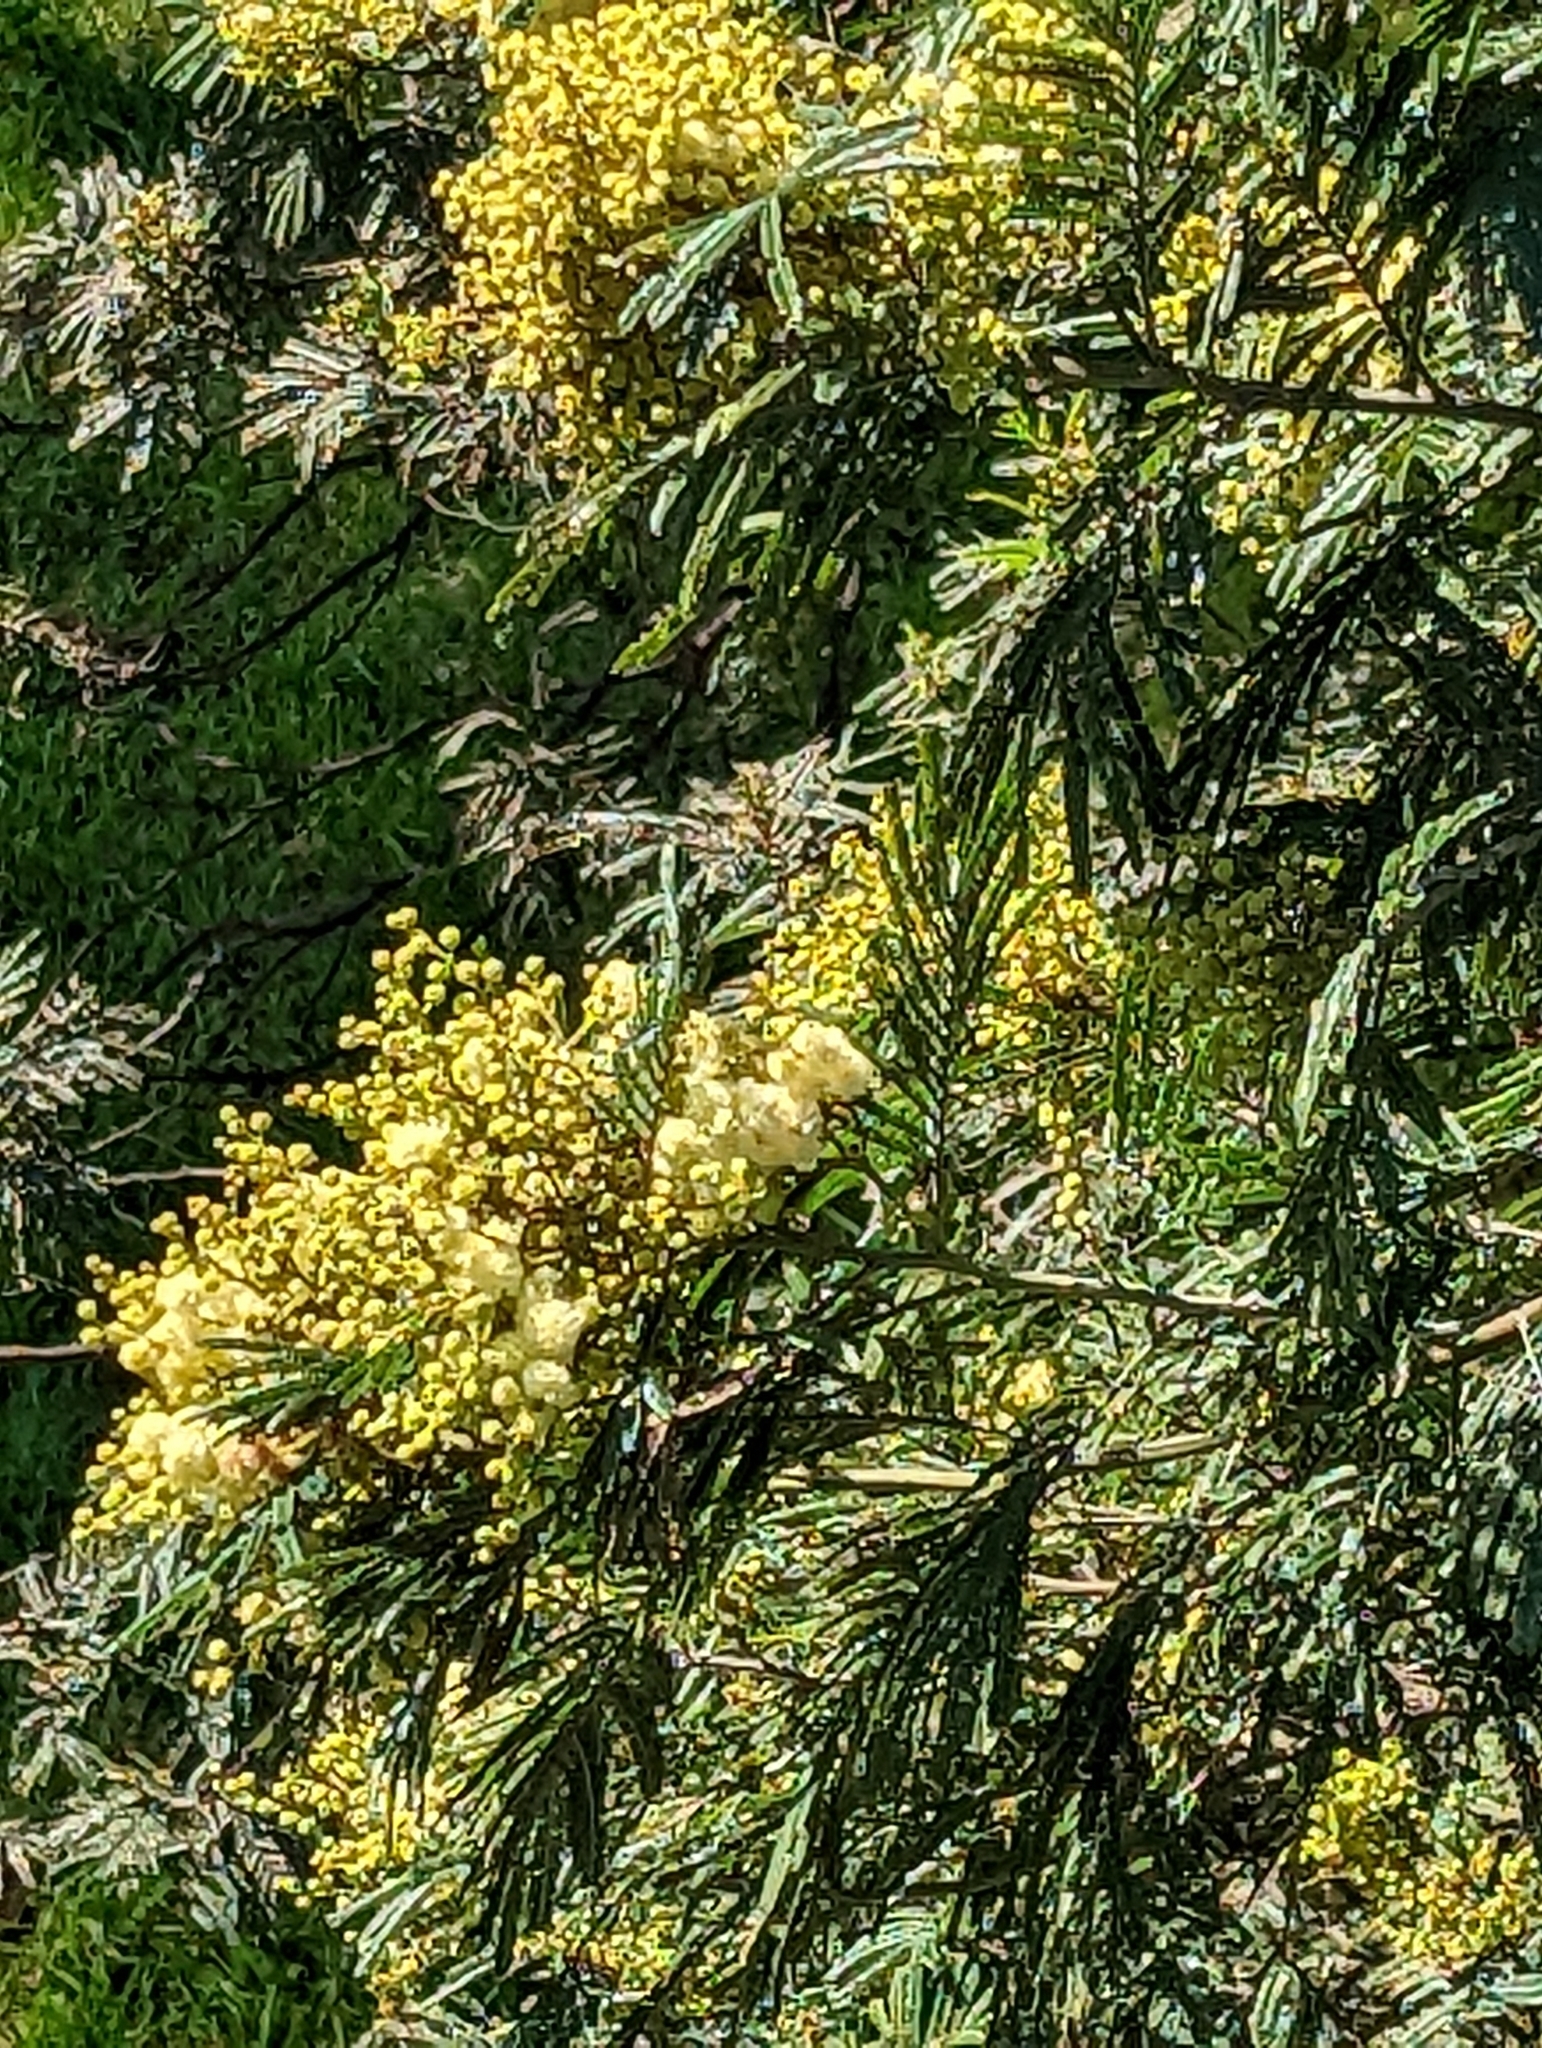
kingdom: Plantae
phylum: Tracheophyta
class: Magnoliopsida
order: Fabales
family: Fabaceae
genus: Acacia
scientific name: Acacia mearnsii
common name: Black wattle
